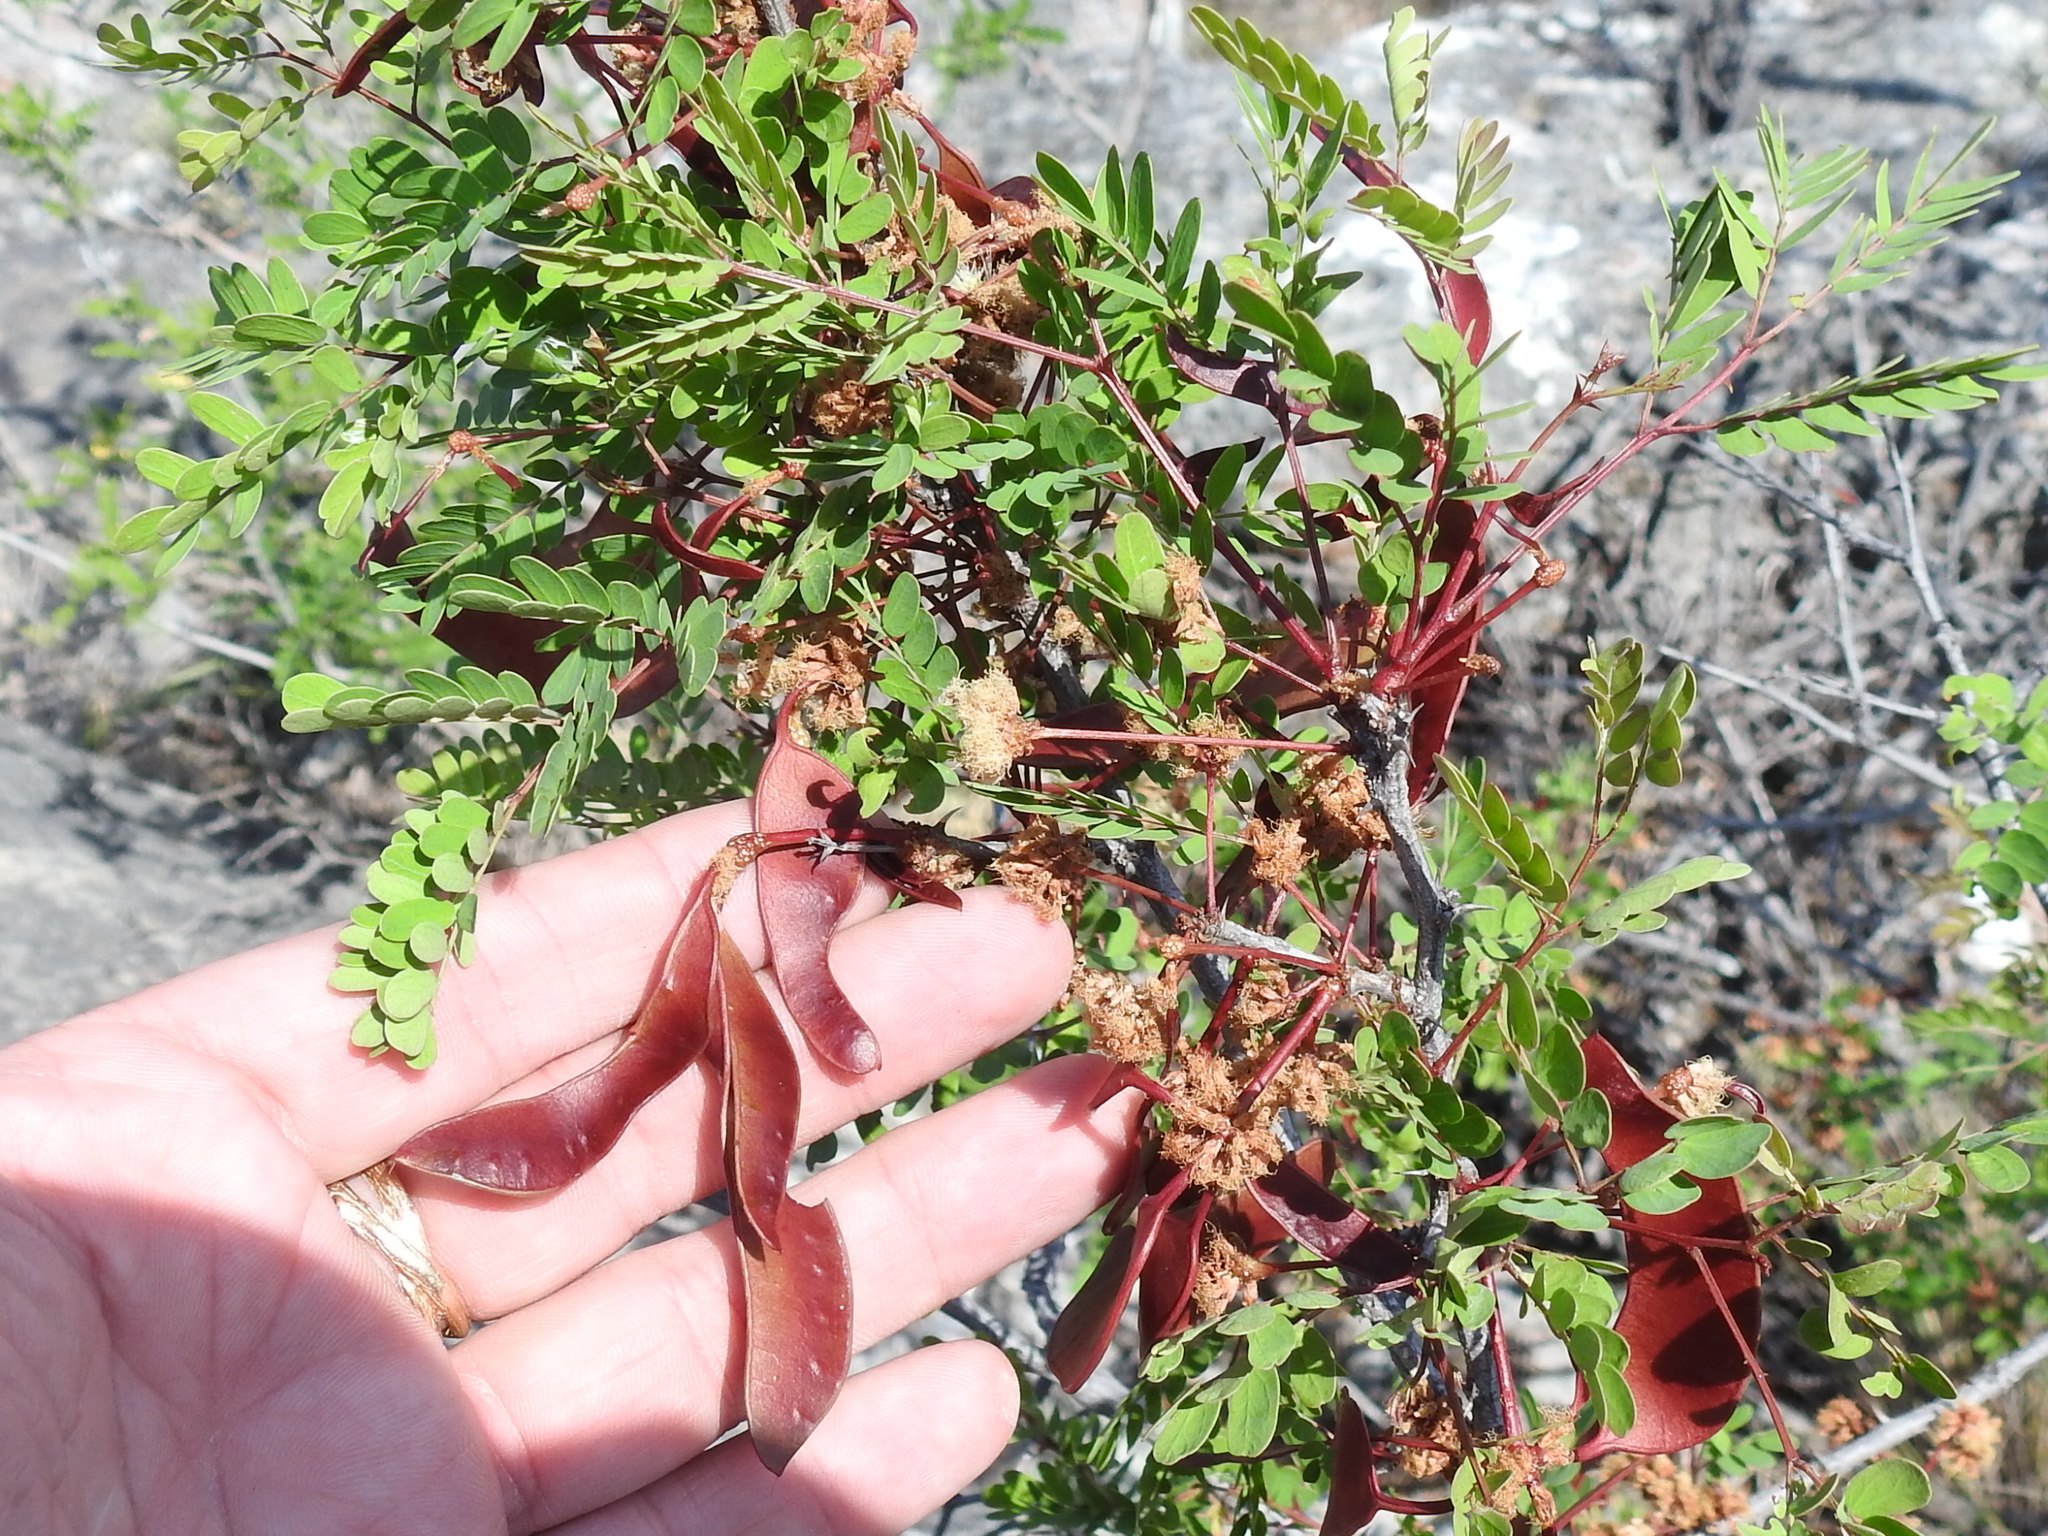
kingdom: Plantae
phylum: Tracheophyta
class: Magnoliopsida
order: Fabales
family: Fabaceae
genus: Senegalia
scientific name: Senegalia roemeriana
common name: Roemer's acacia
